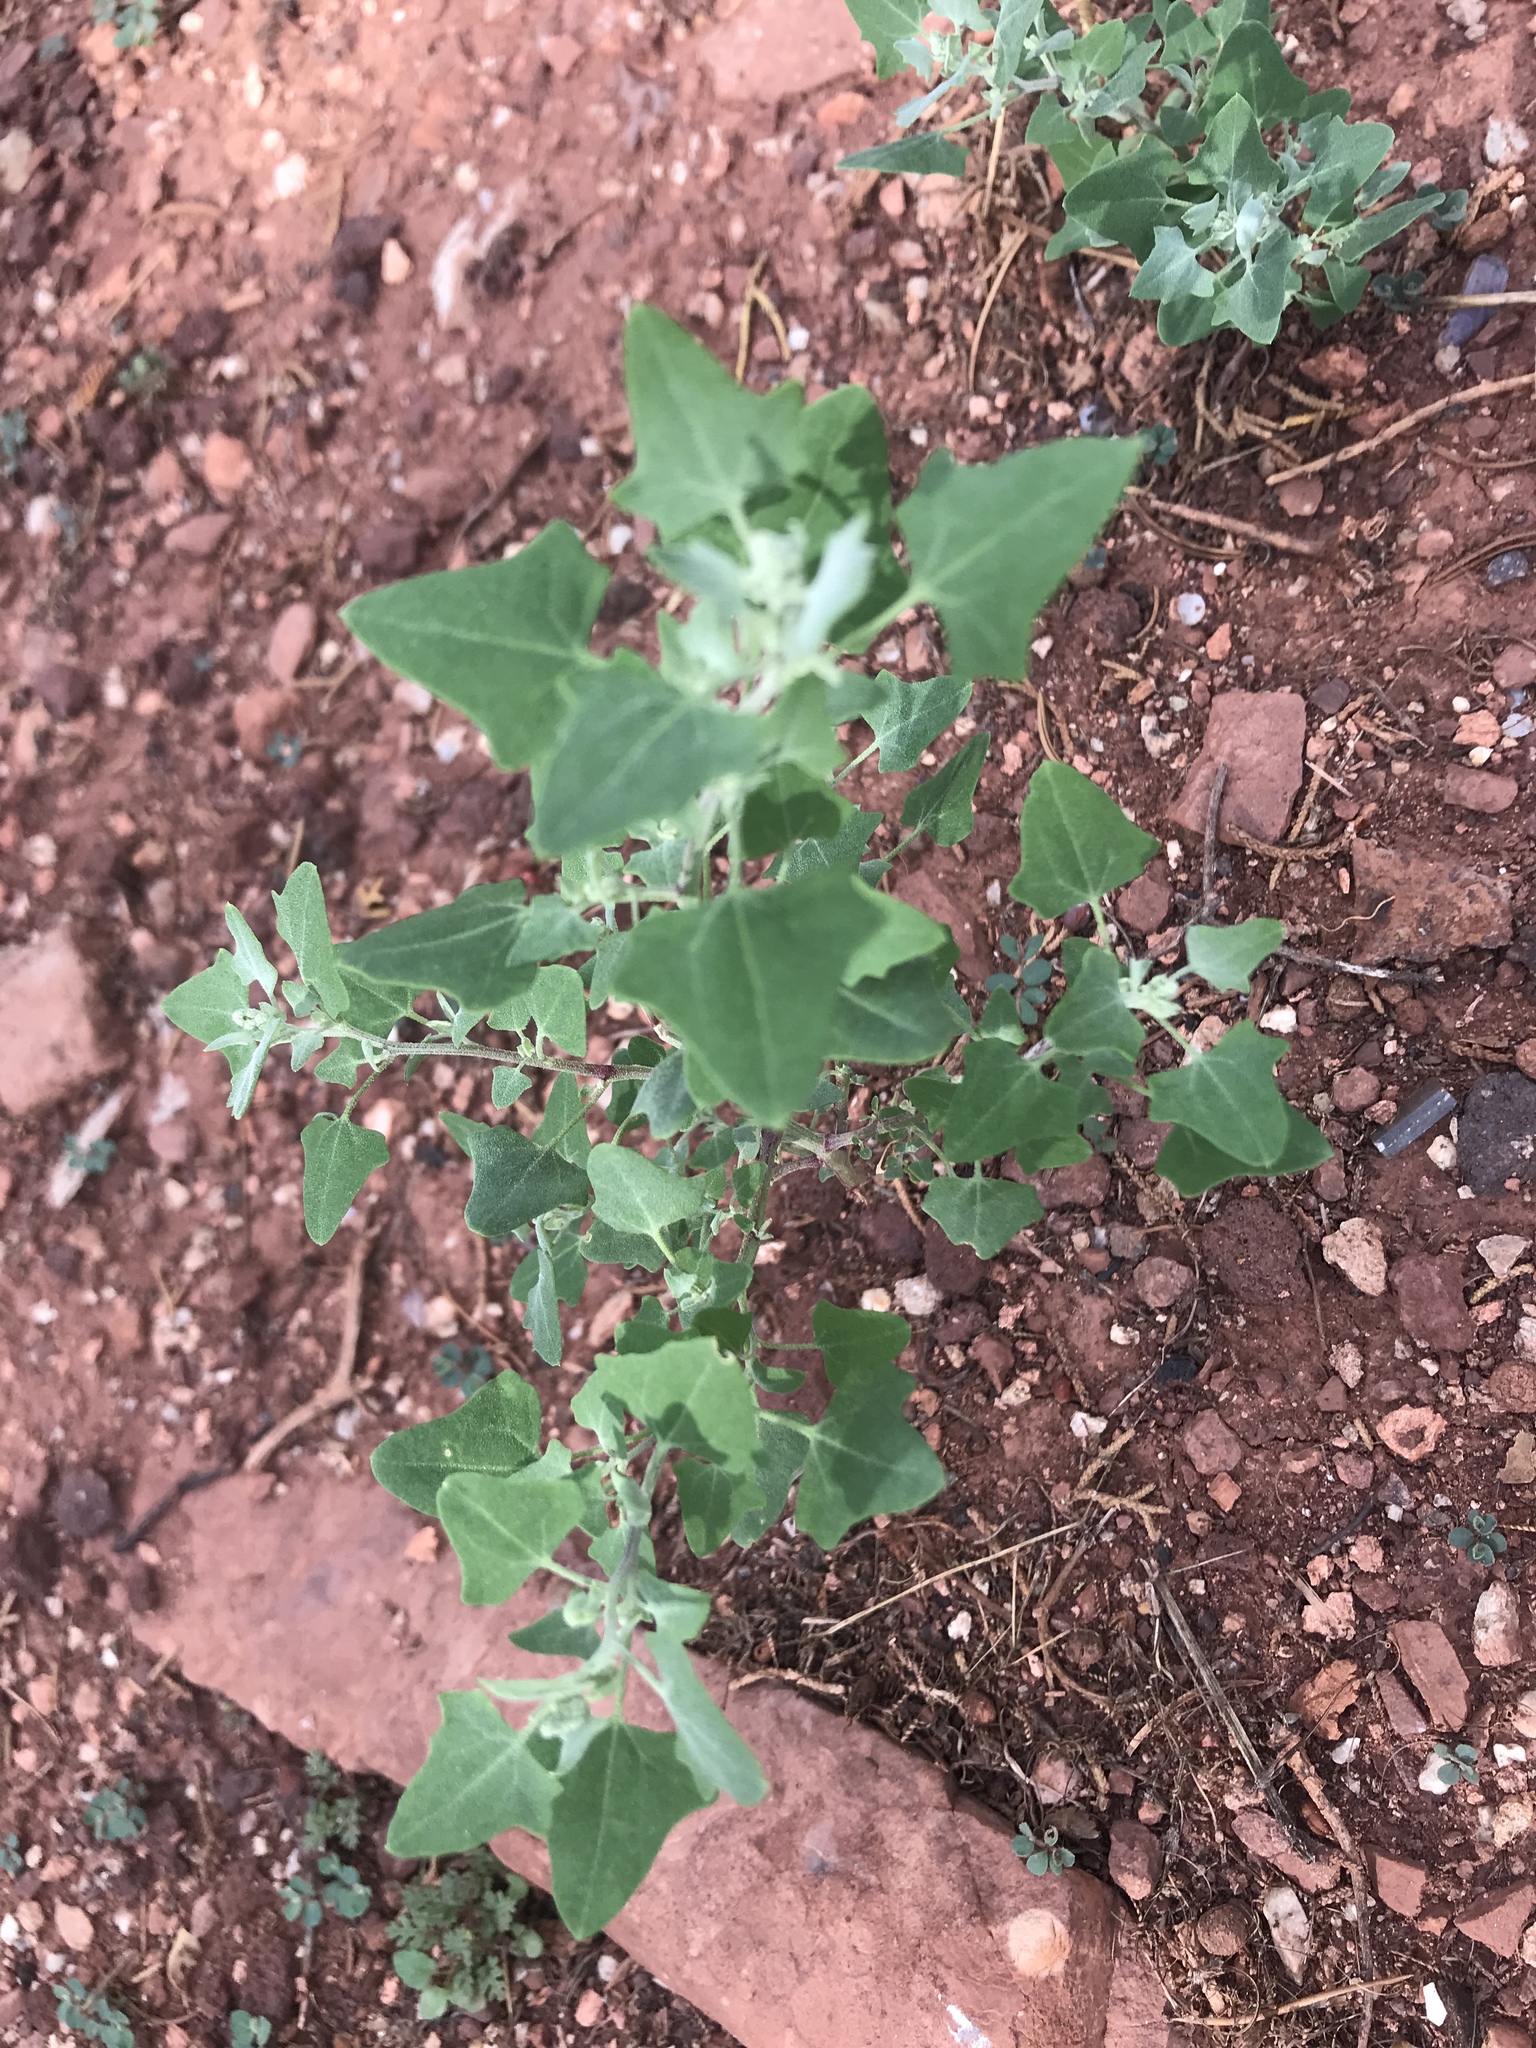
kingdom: Plantae
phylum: Tracheophyta
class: Magnoliopsida
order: Caryophyllales
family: Amaranthaceae
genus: Chenopodium
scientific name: Chenopodium album
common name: Fat-hen
